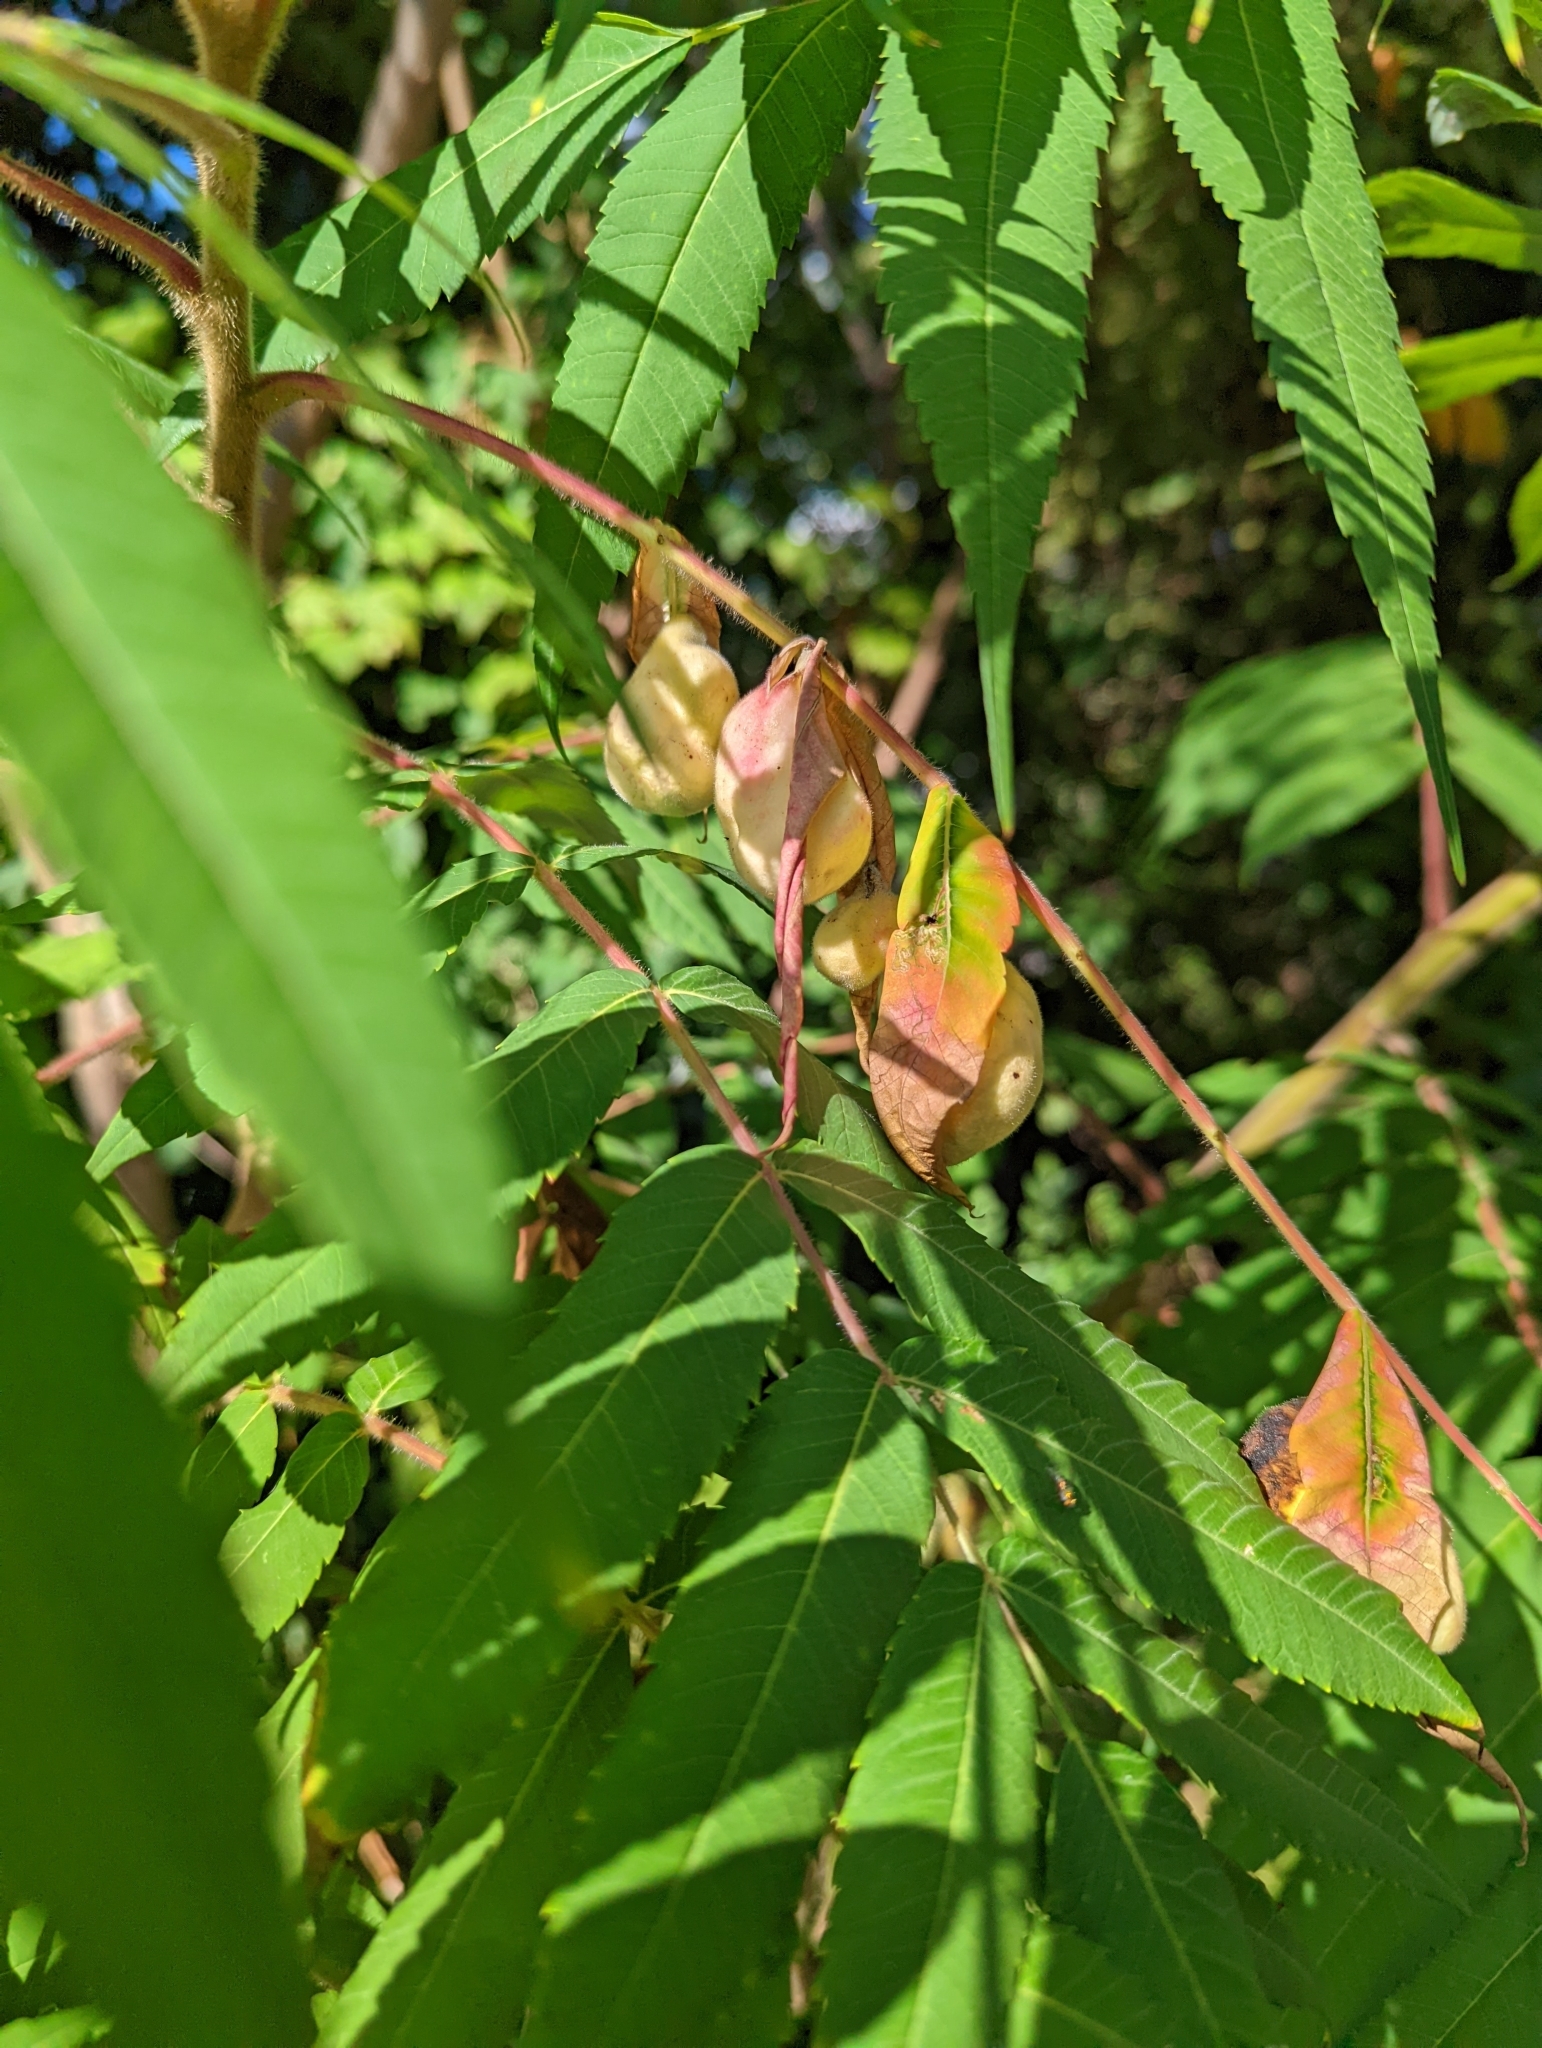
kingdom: Animalia
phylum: Arthropoda
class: Insecta
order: Hemiptera
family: Aphididae
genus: Melaphis
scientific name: Melaphis rhois
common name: Sumac gall aphid
